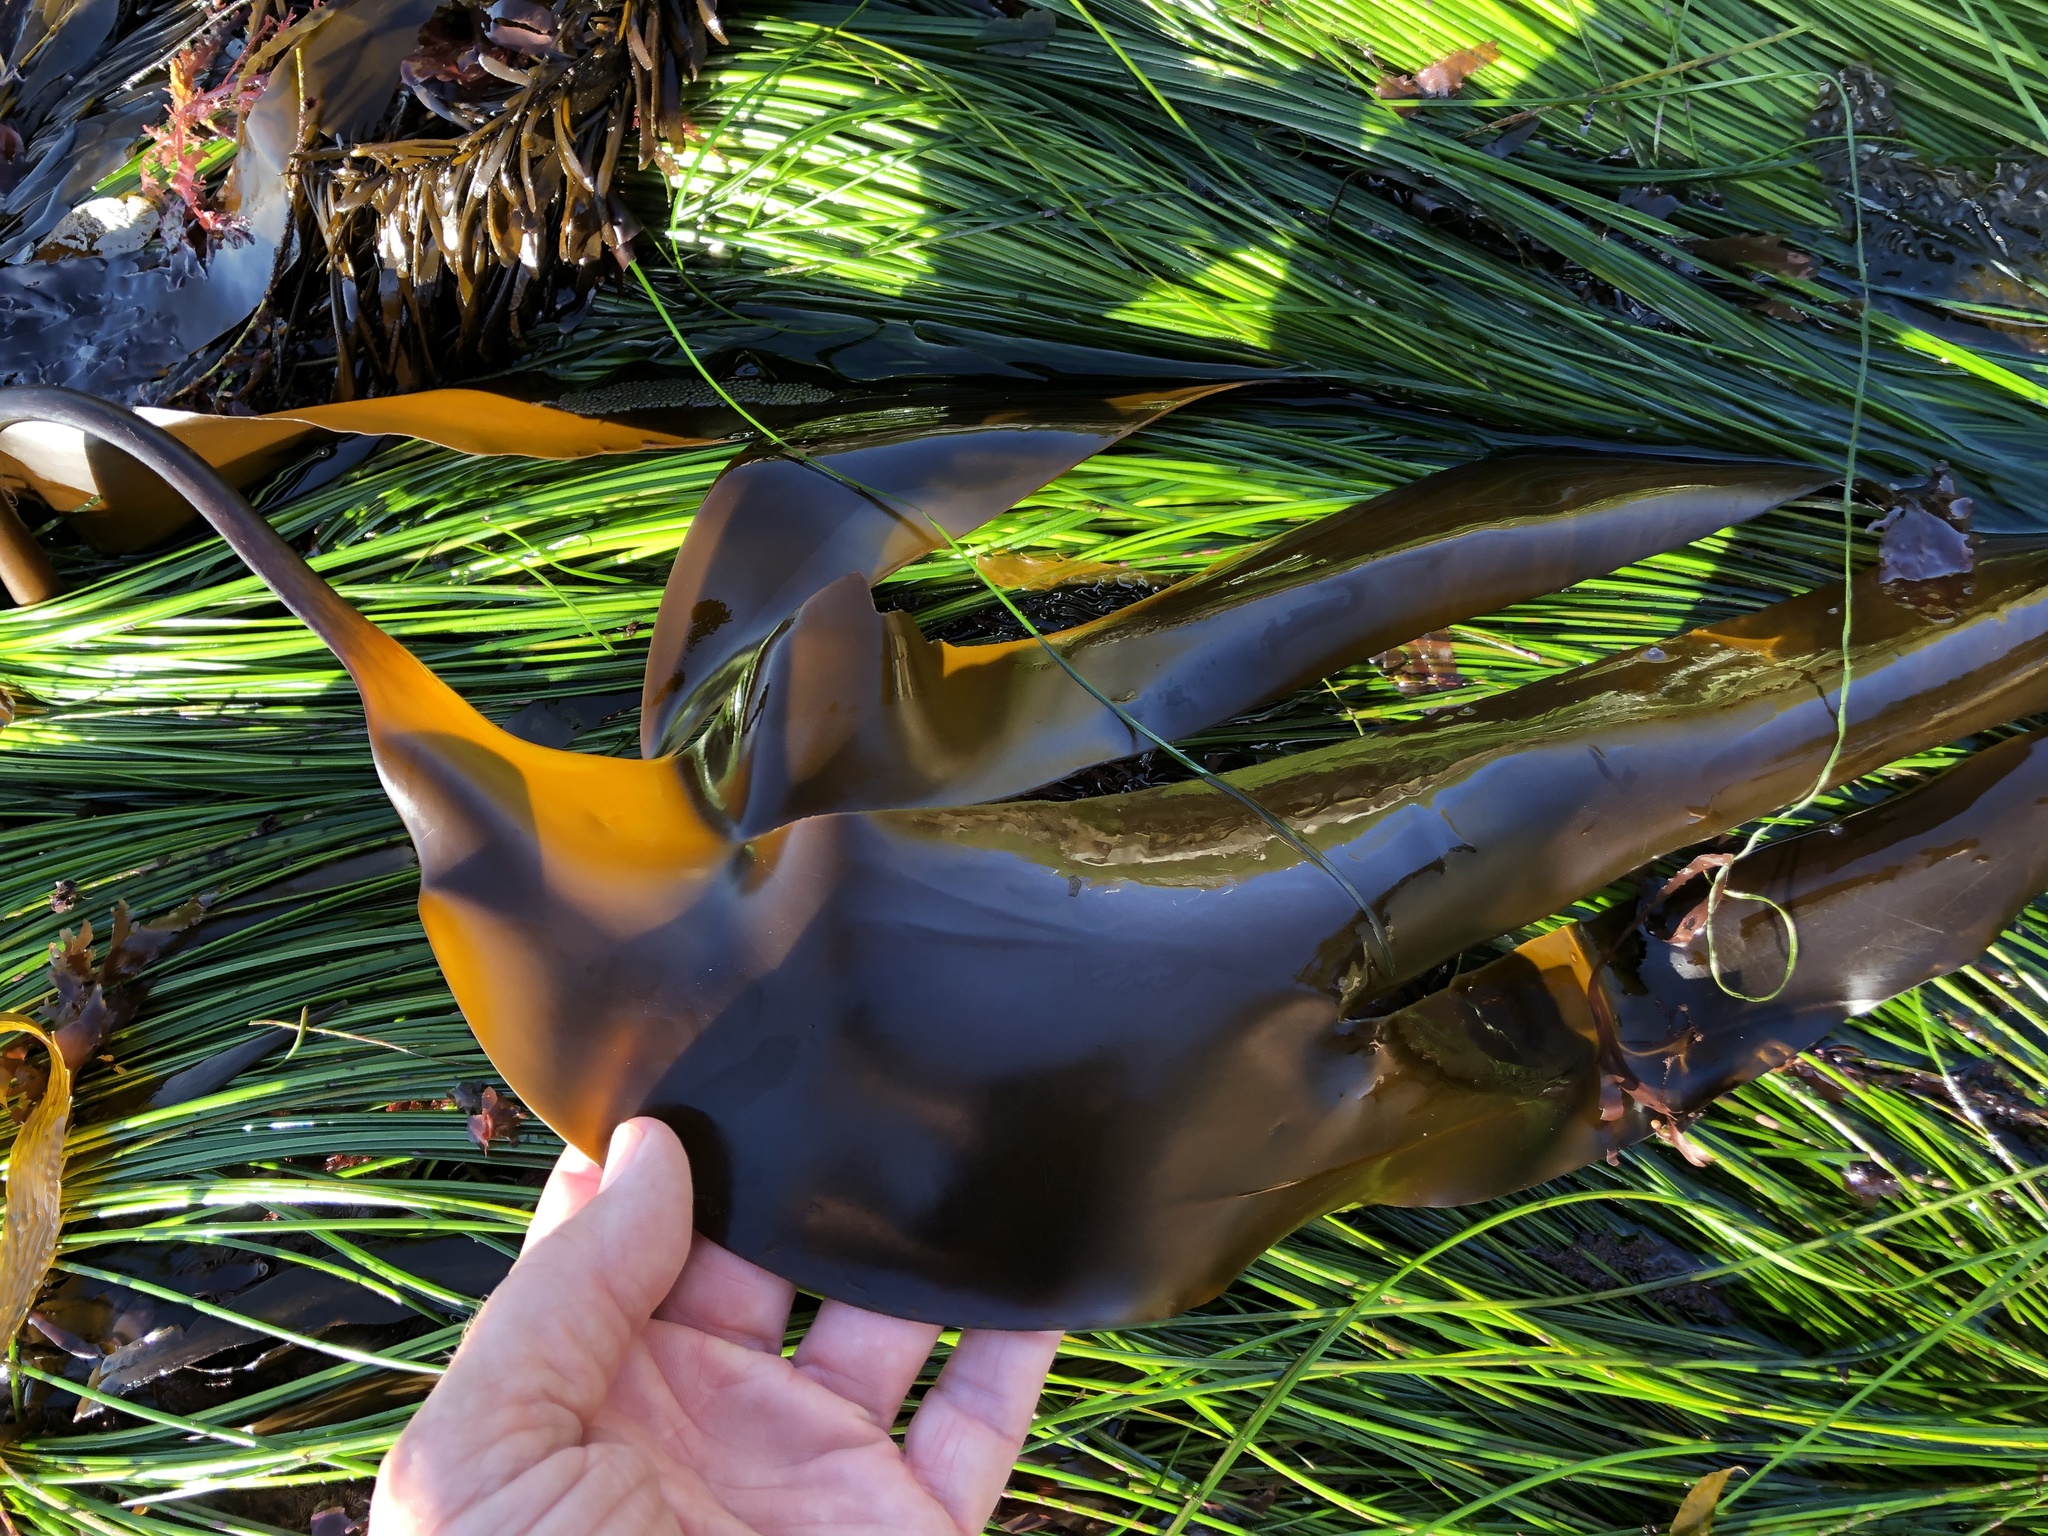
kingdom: Chromista
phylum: Ochrophyta
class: Phaeophyceae
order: Laminariales
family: Laminariaceae
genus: Laminaria
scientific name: Laminaria setchellii
